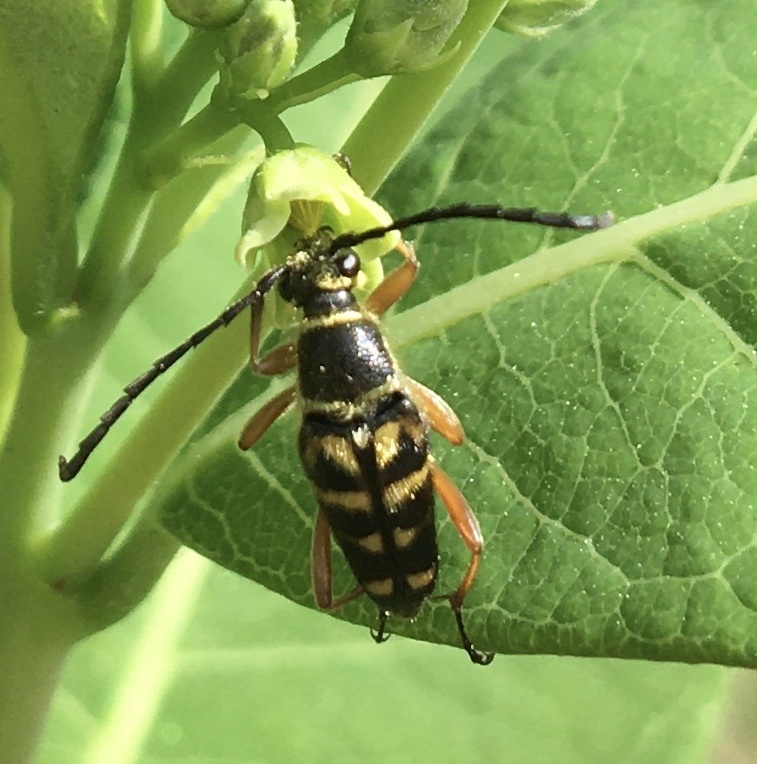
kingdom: Animalia
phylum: Arthropoda
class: Insecta
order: Coleoptera
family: Cerambycidae
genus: Typocerus
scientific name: Typocerus zebra
